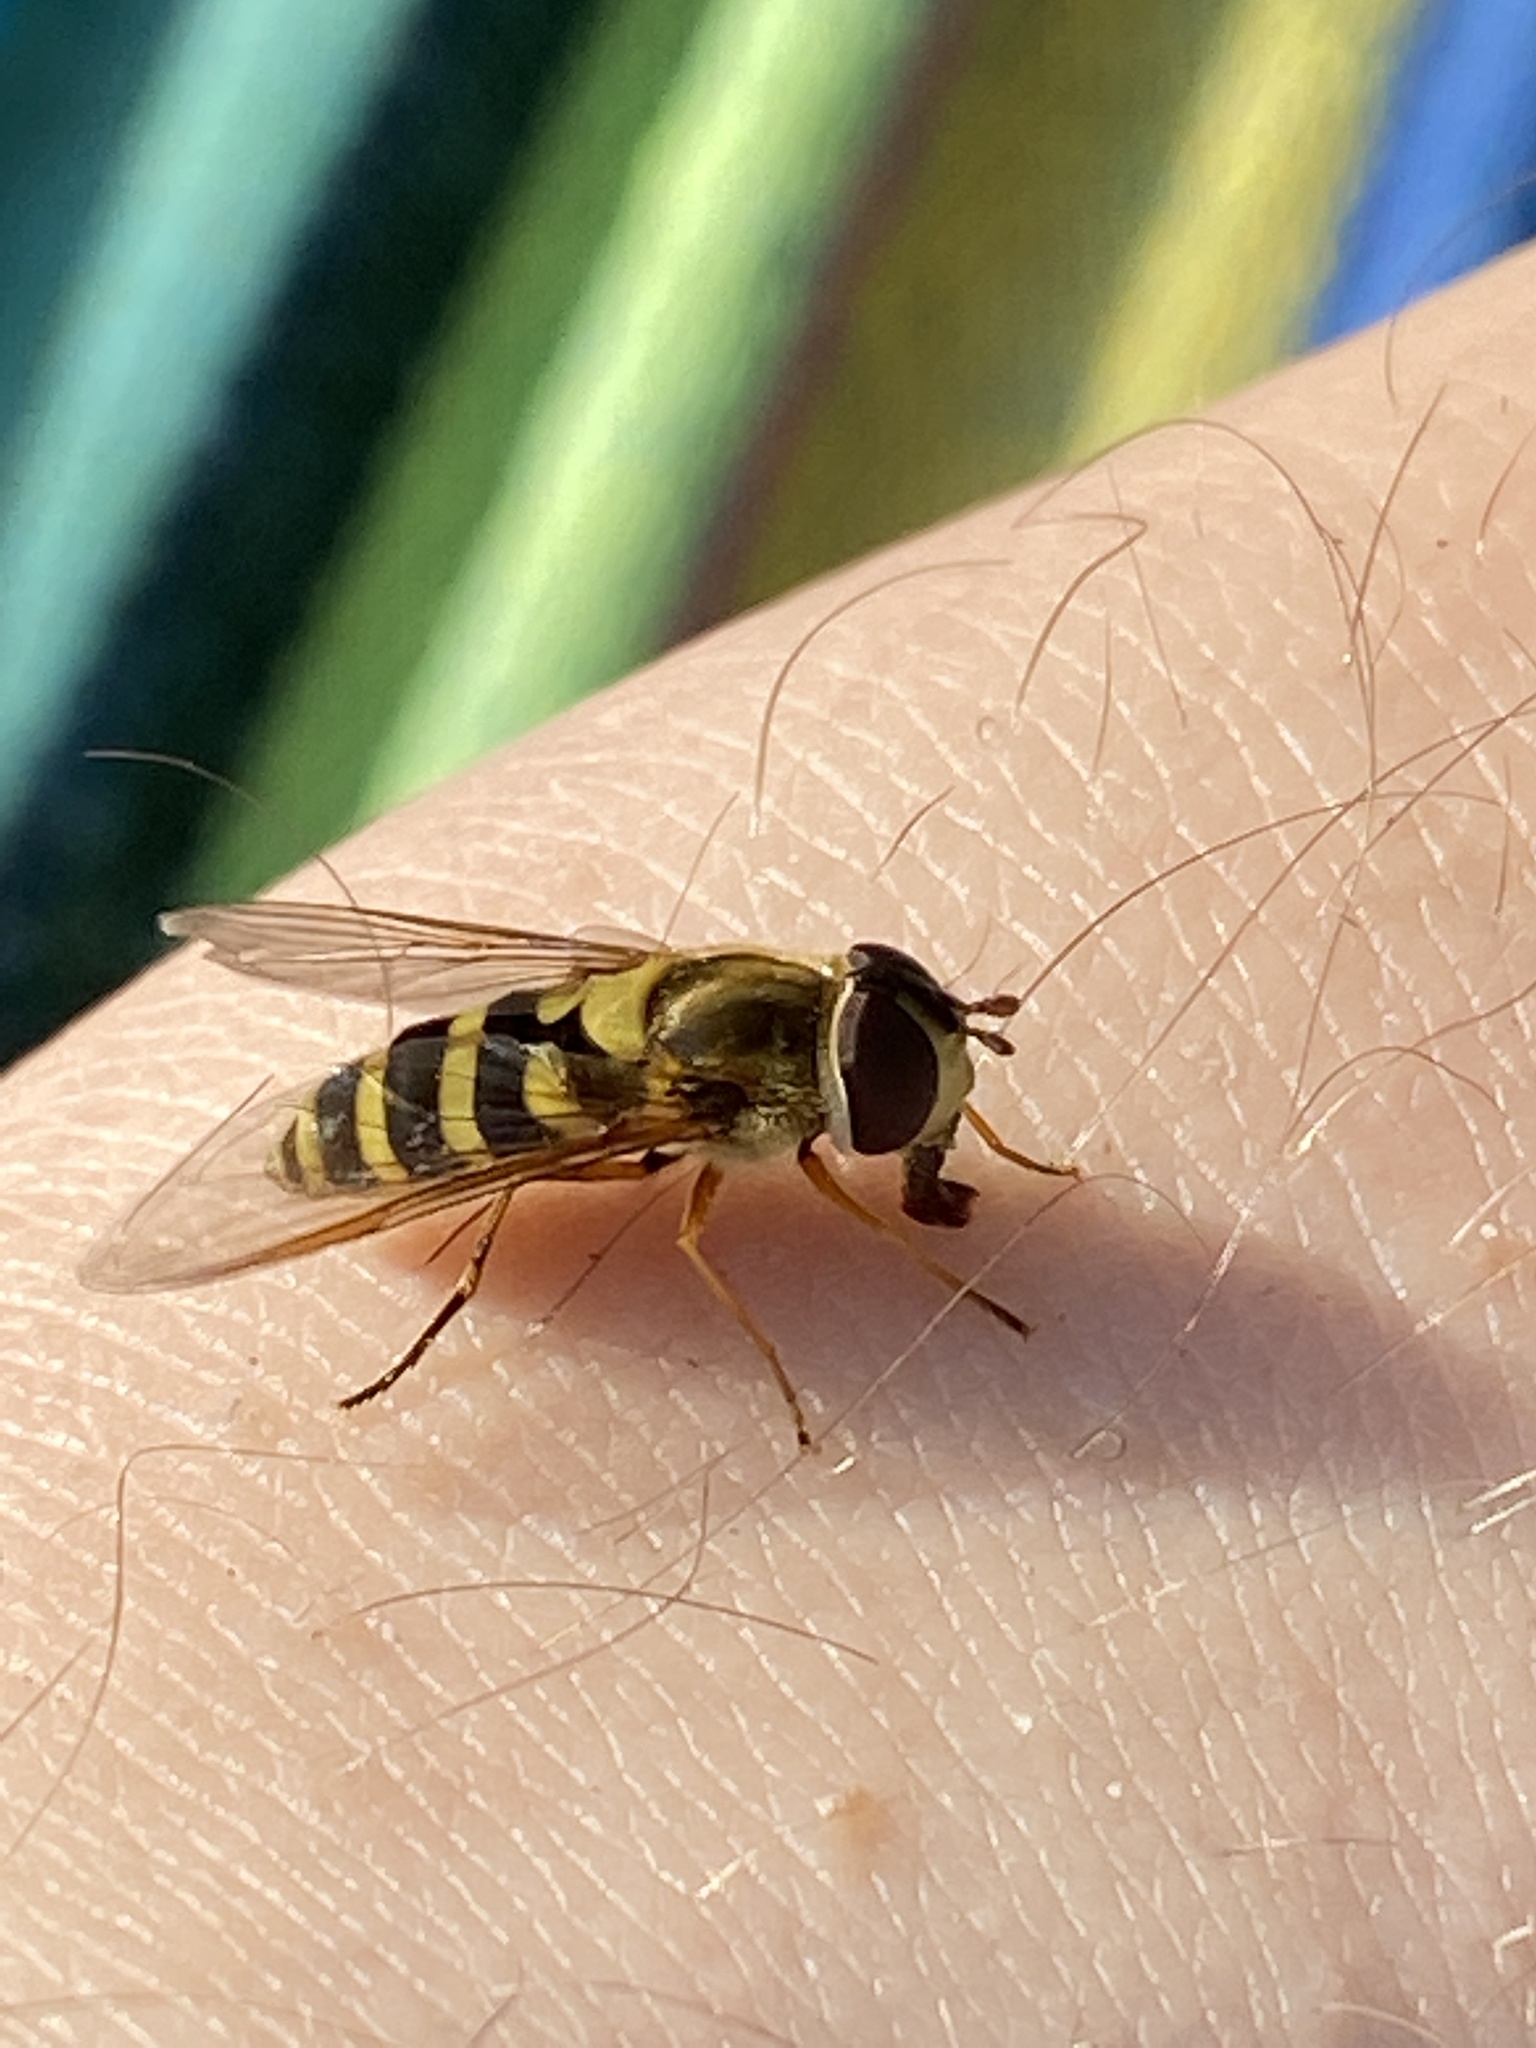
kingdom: Animalia
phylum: Arthropoda
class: Insecta
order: Diptera
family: Syrphidae
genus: Syrphus
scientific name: Syrphus ribesii
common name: Common flower fly
